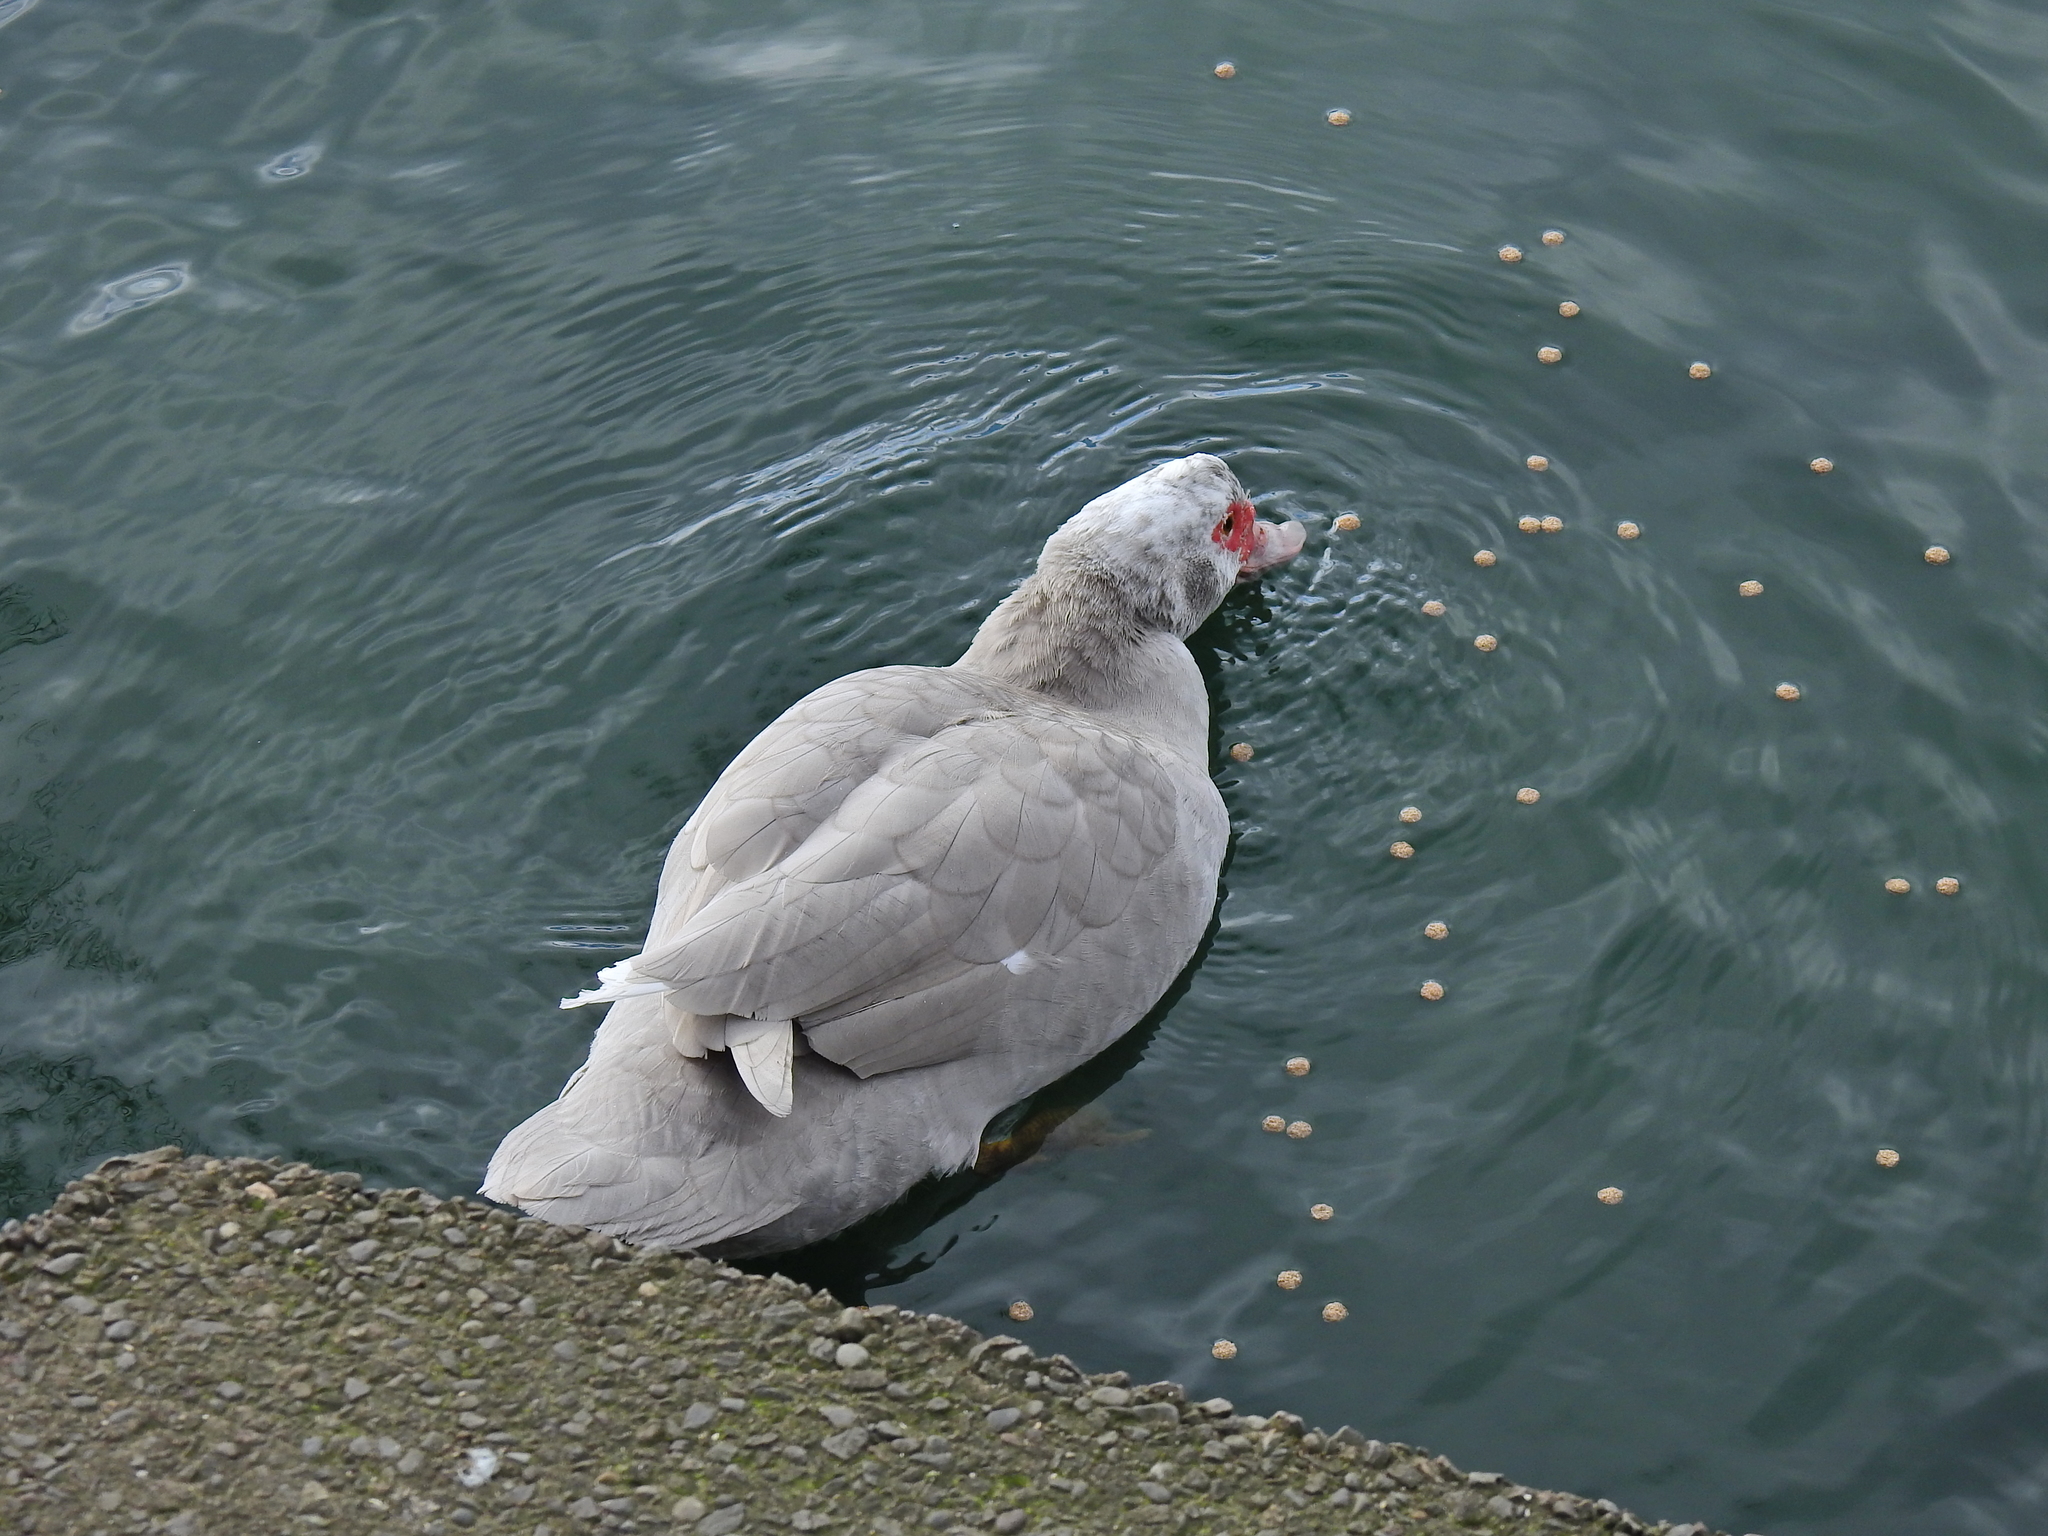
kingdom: Animalia
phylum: Chordata
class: Aves
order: Anseriformes
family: Anatidae
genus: Cairina
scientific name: Cairina moschata
